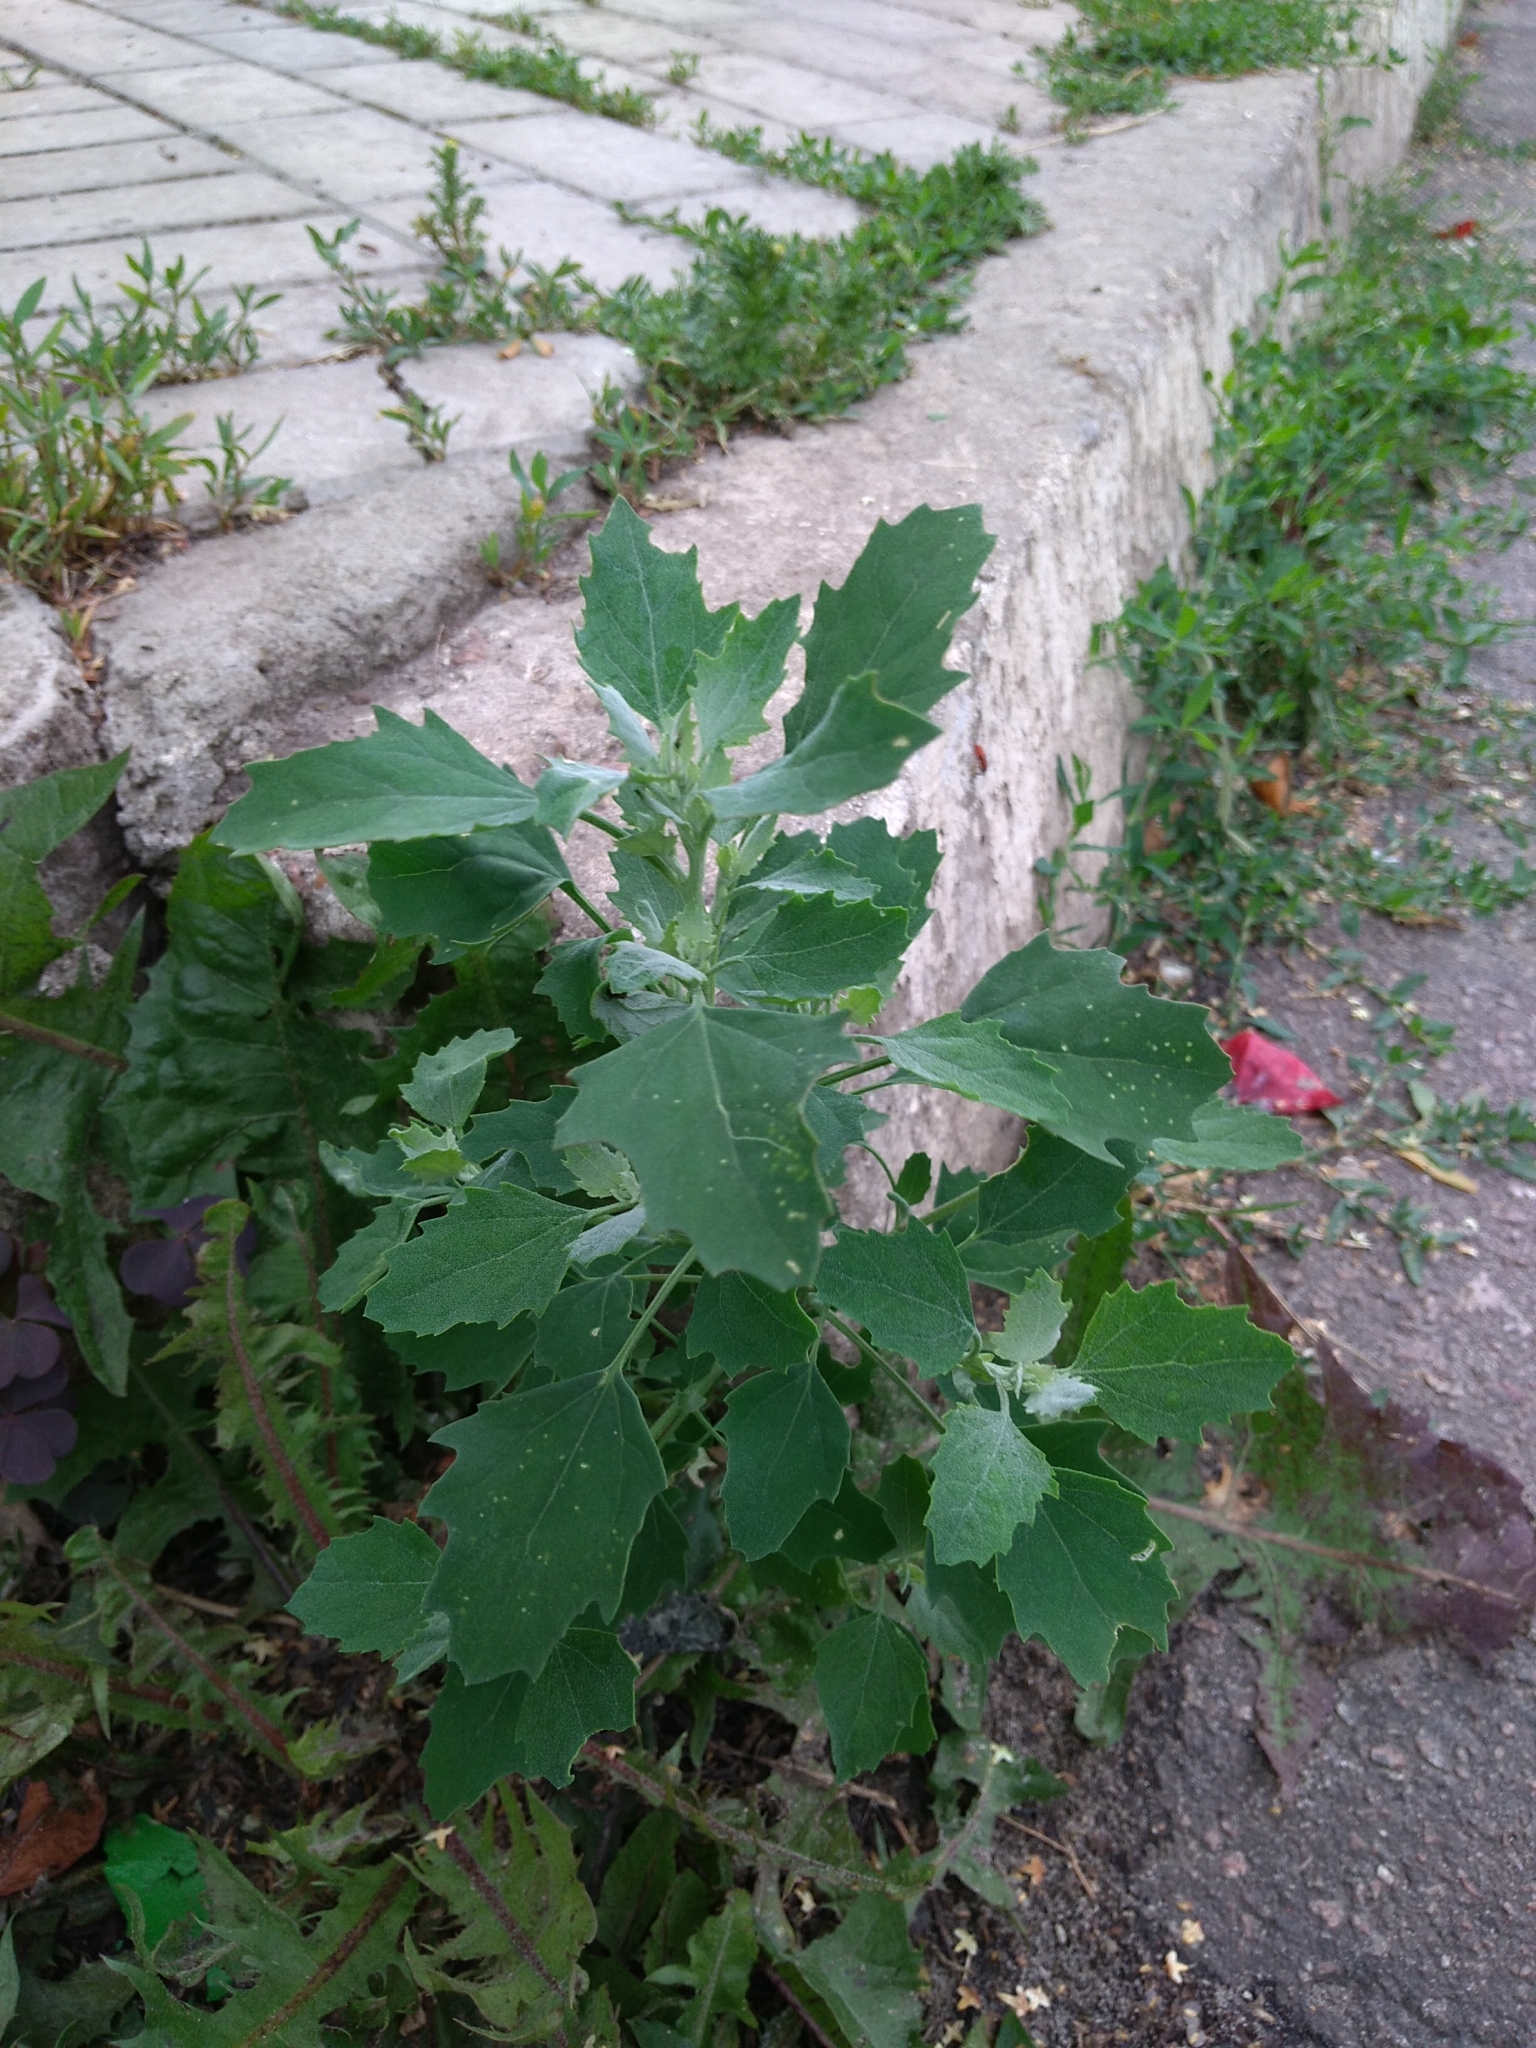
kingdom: Plantae
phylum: Tracheophyta
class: Magnoliopsida
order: Caryophyllales
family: Amaranthaceae
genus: Chenopodium
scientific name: Chenopodium album
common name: Fat-hen
